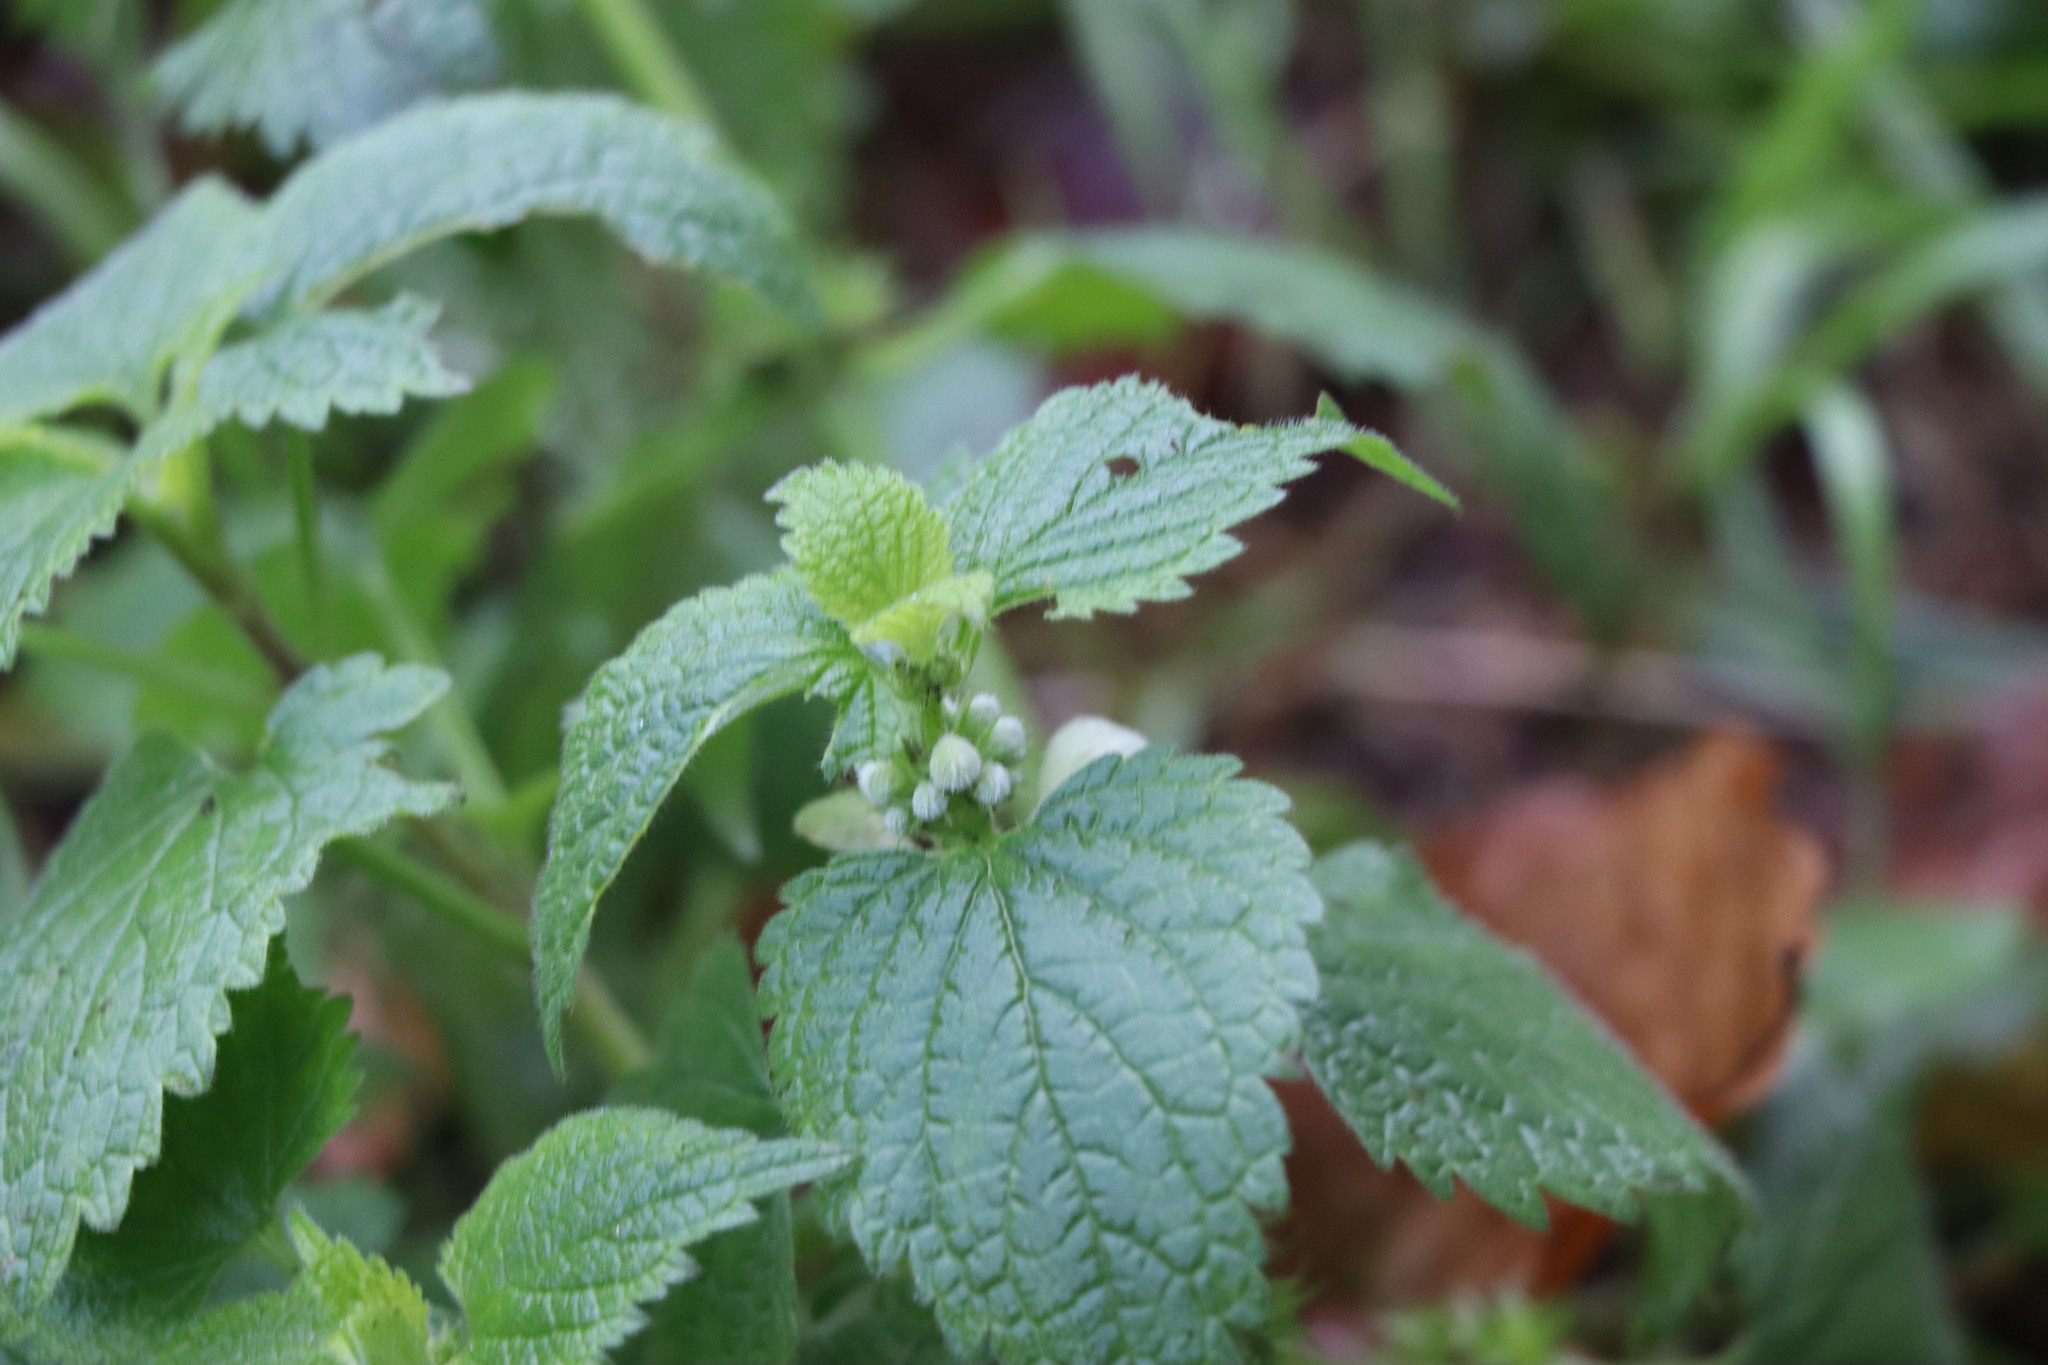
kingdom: Plantae
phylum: Tracheophyta
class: Magnoliopsida
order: Lamiales
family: Lamiaceae
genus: Lamium
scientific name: Lamium album
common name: White dead-nettle
